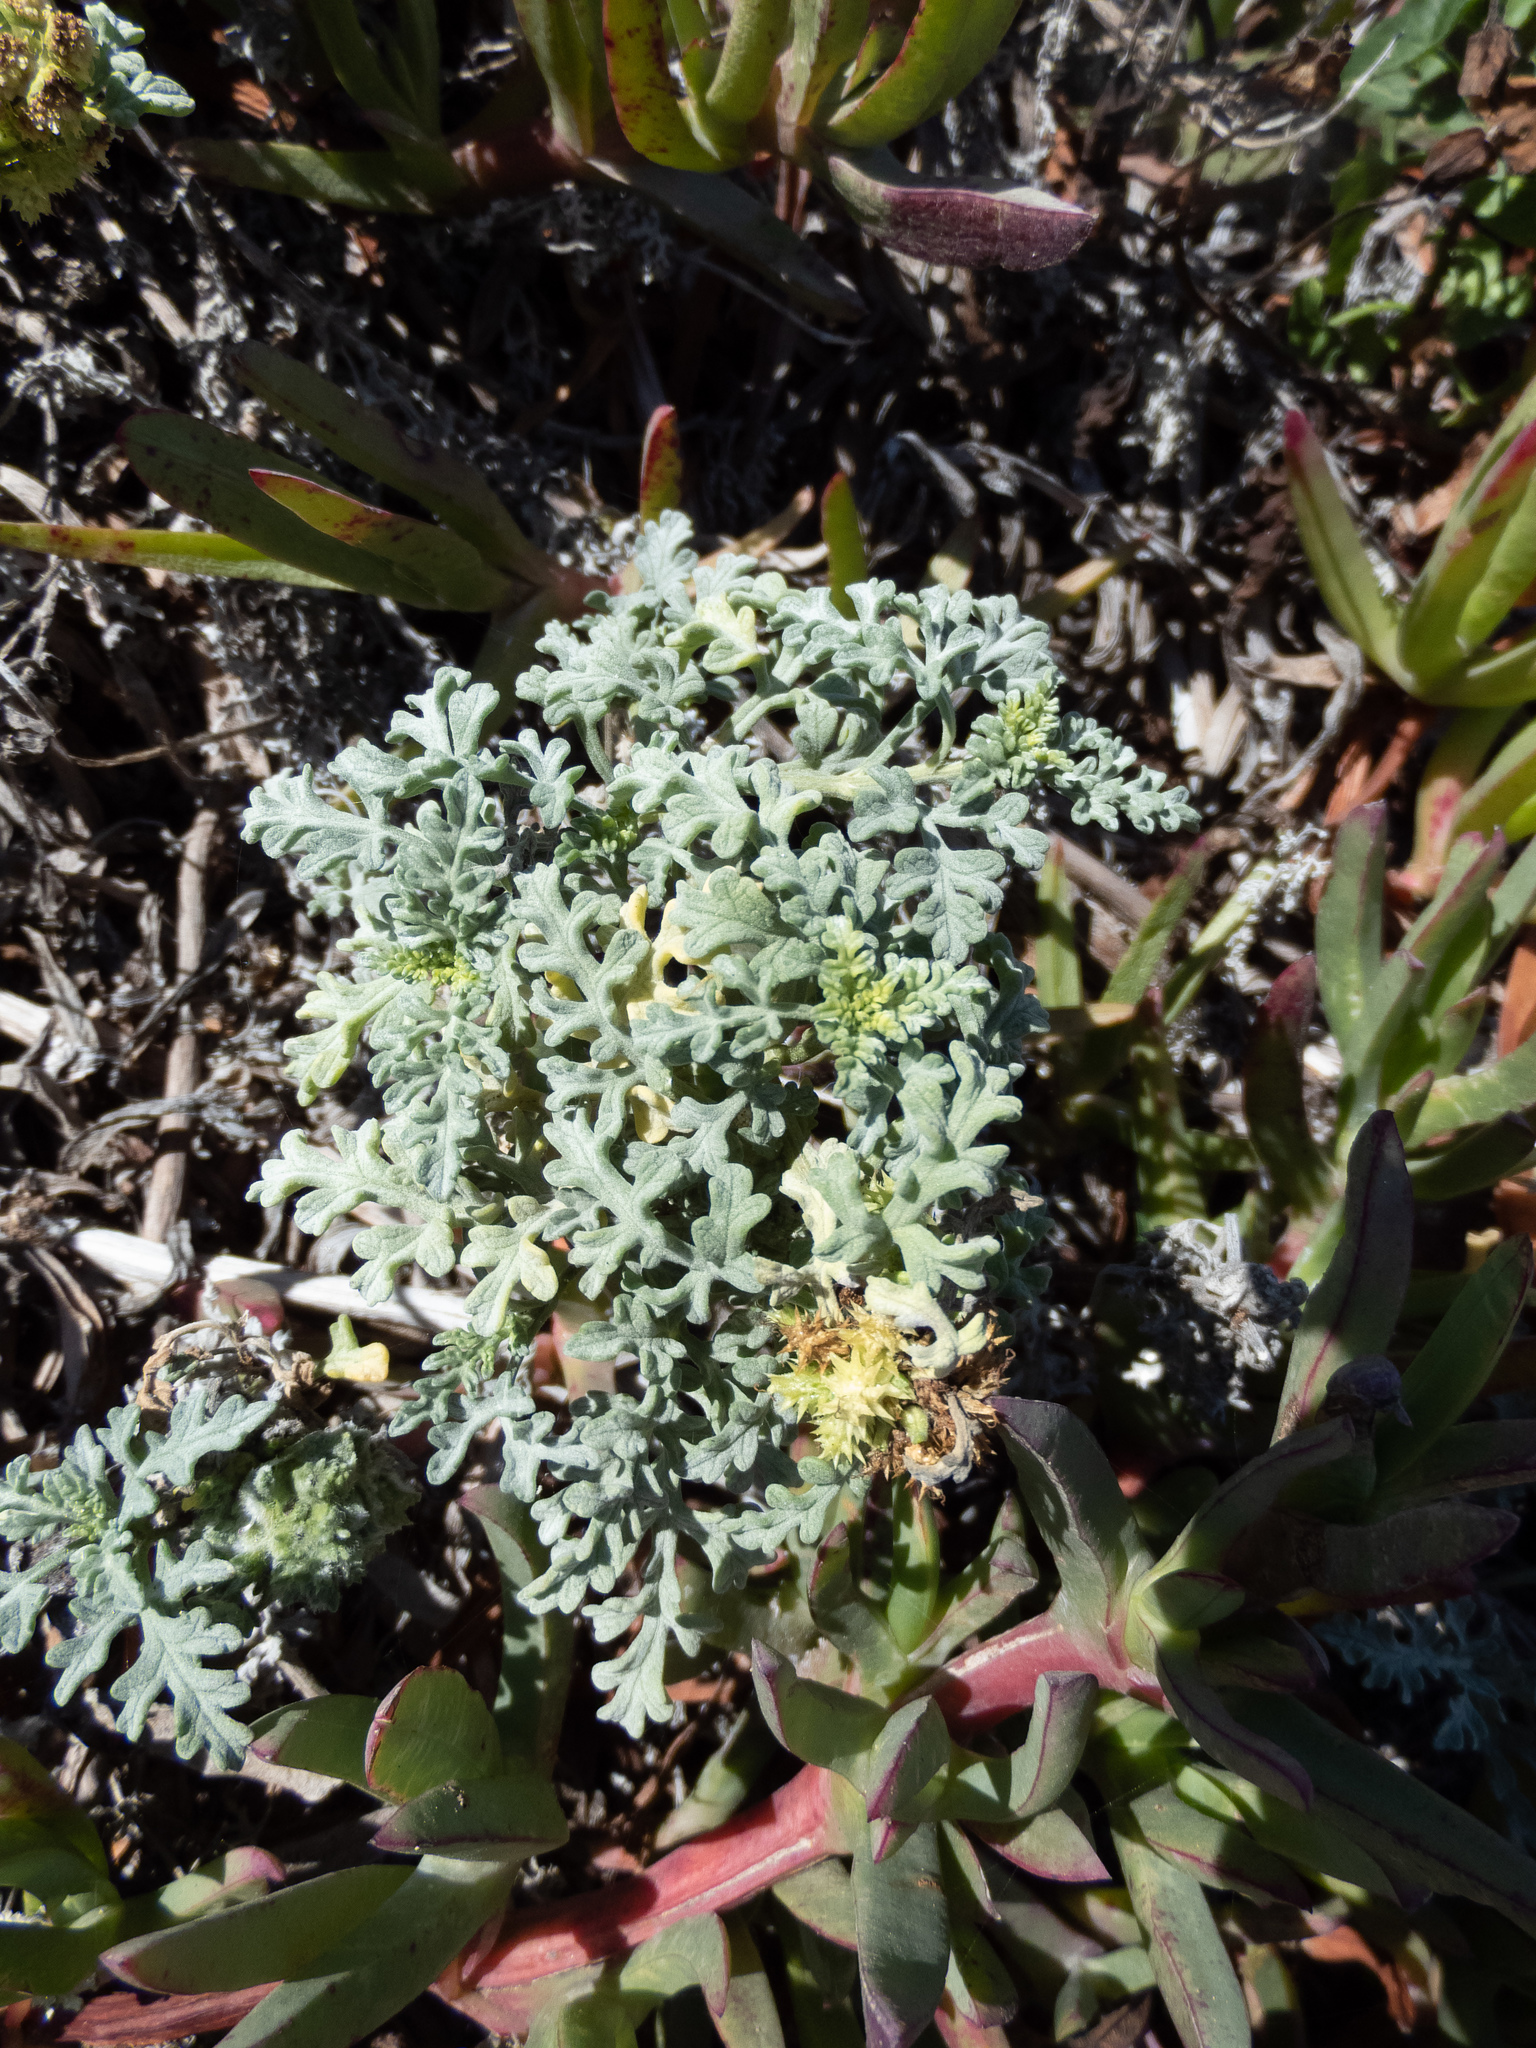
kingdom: Plantae
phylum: Tracheophyta
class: Magnoliopsida
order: Asterales
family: Asteraceae
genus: Ambrosia
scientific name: Ambrosia chamissonis
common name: Beachbur
